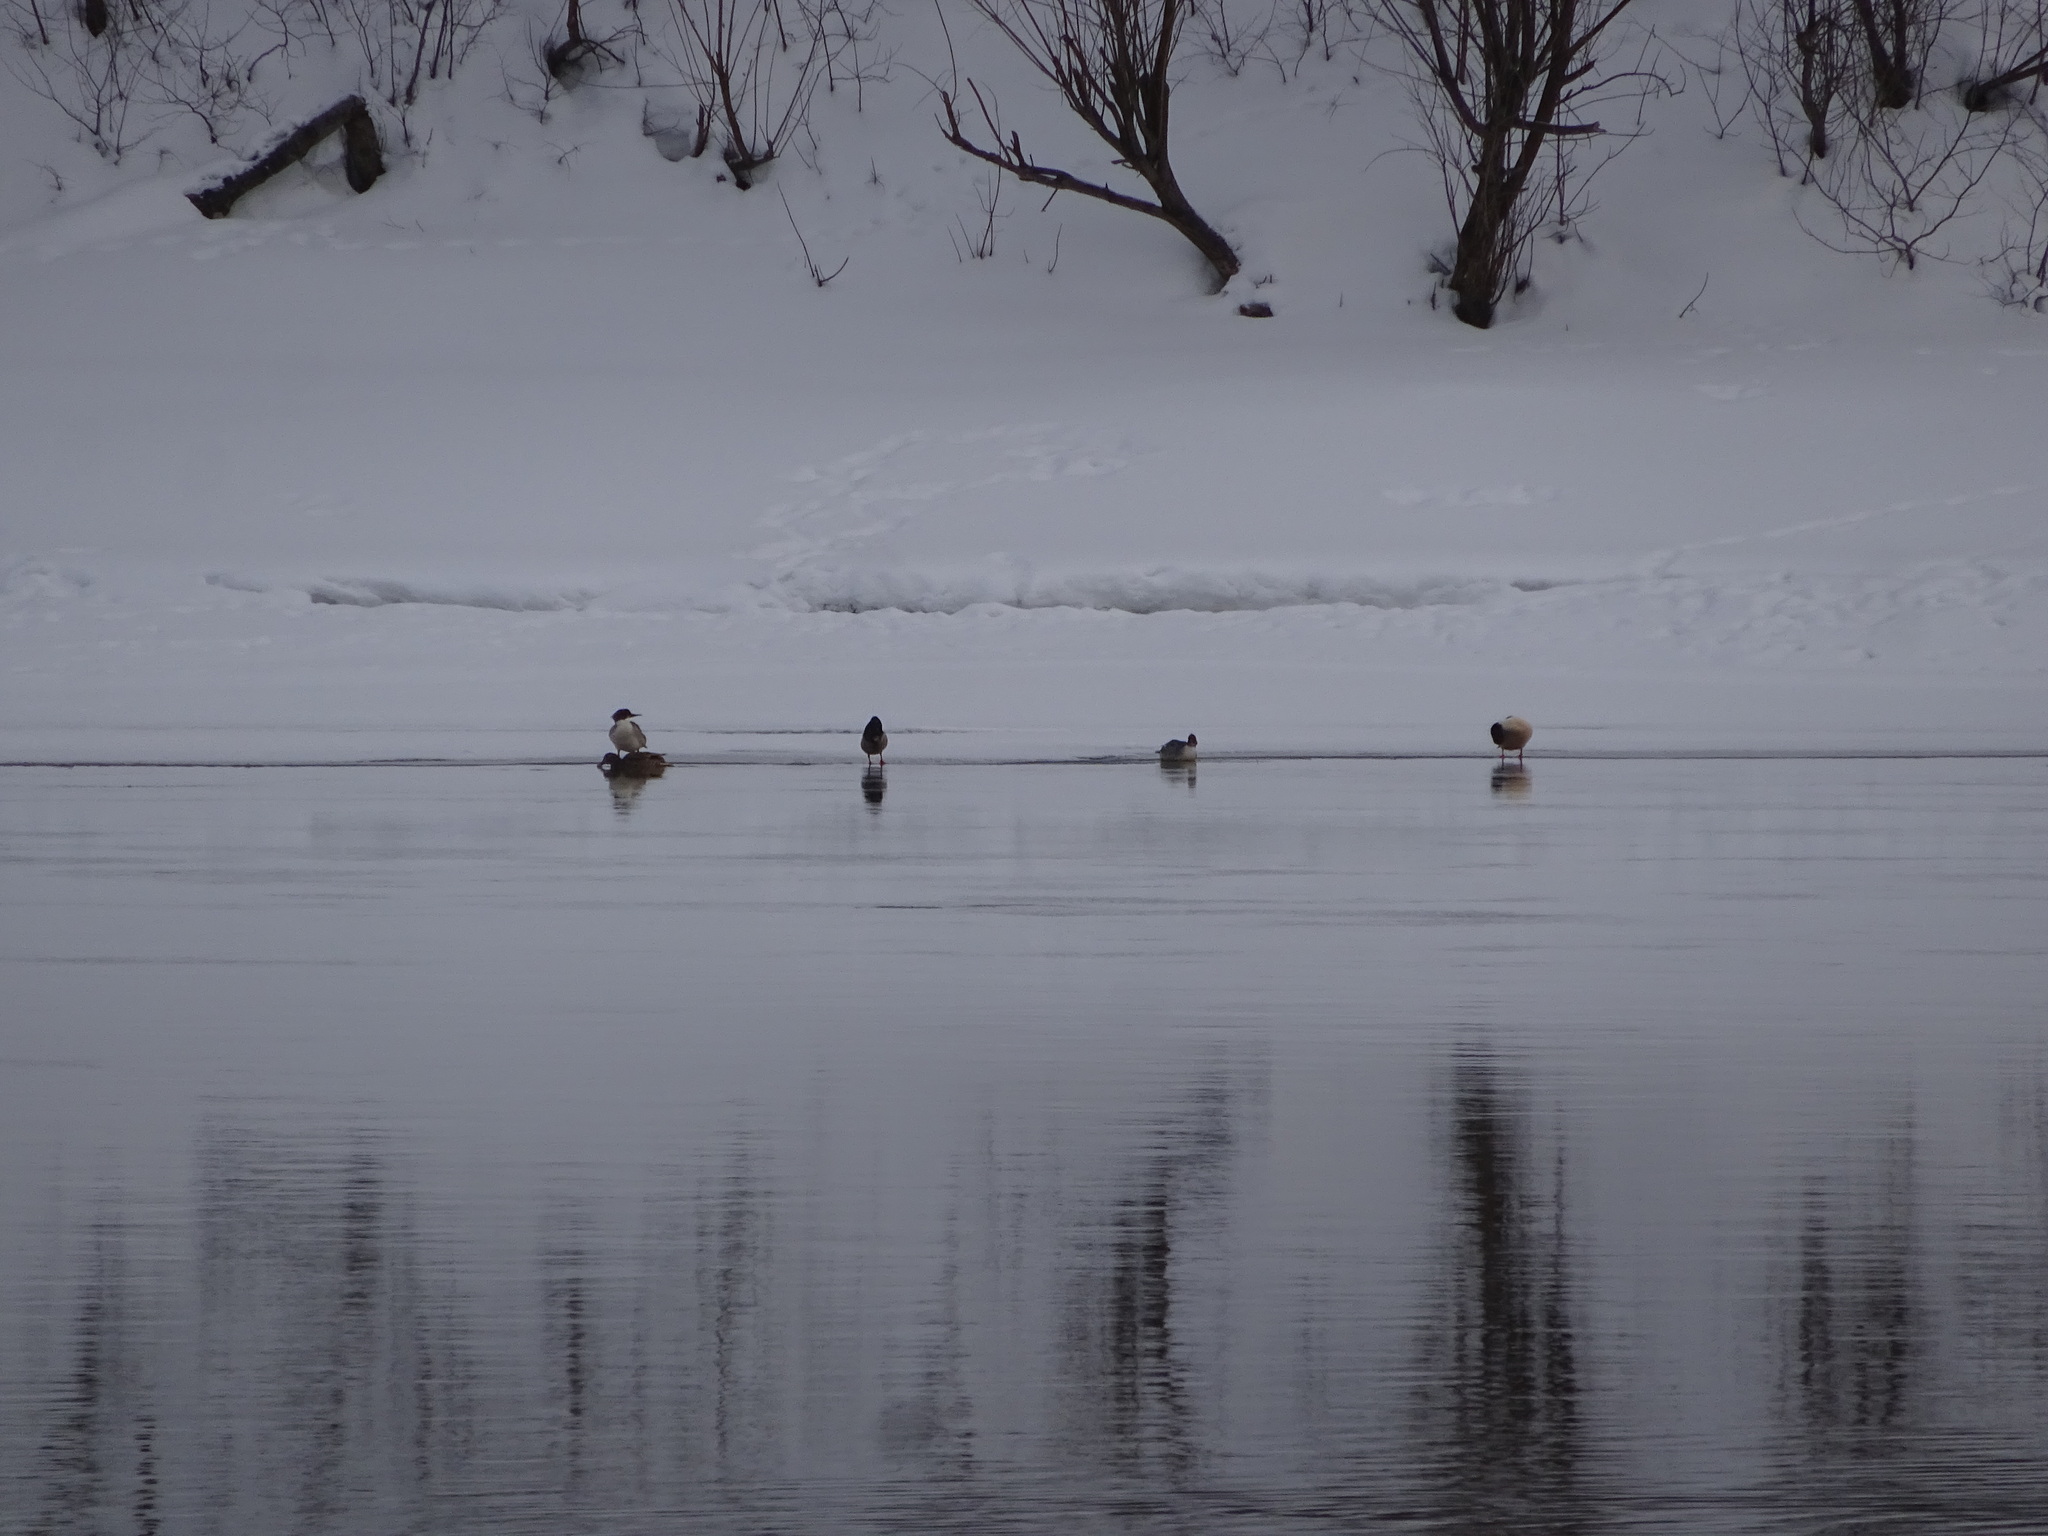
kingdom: Animalia
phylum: Chordata
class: Aves
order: Anseriformes
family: Anatidae
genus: Mergus
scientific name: Mergus merganser
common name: Common merganser
